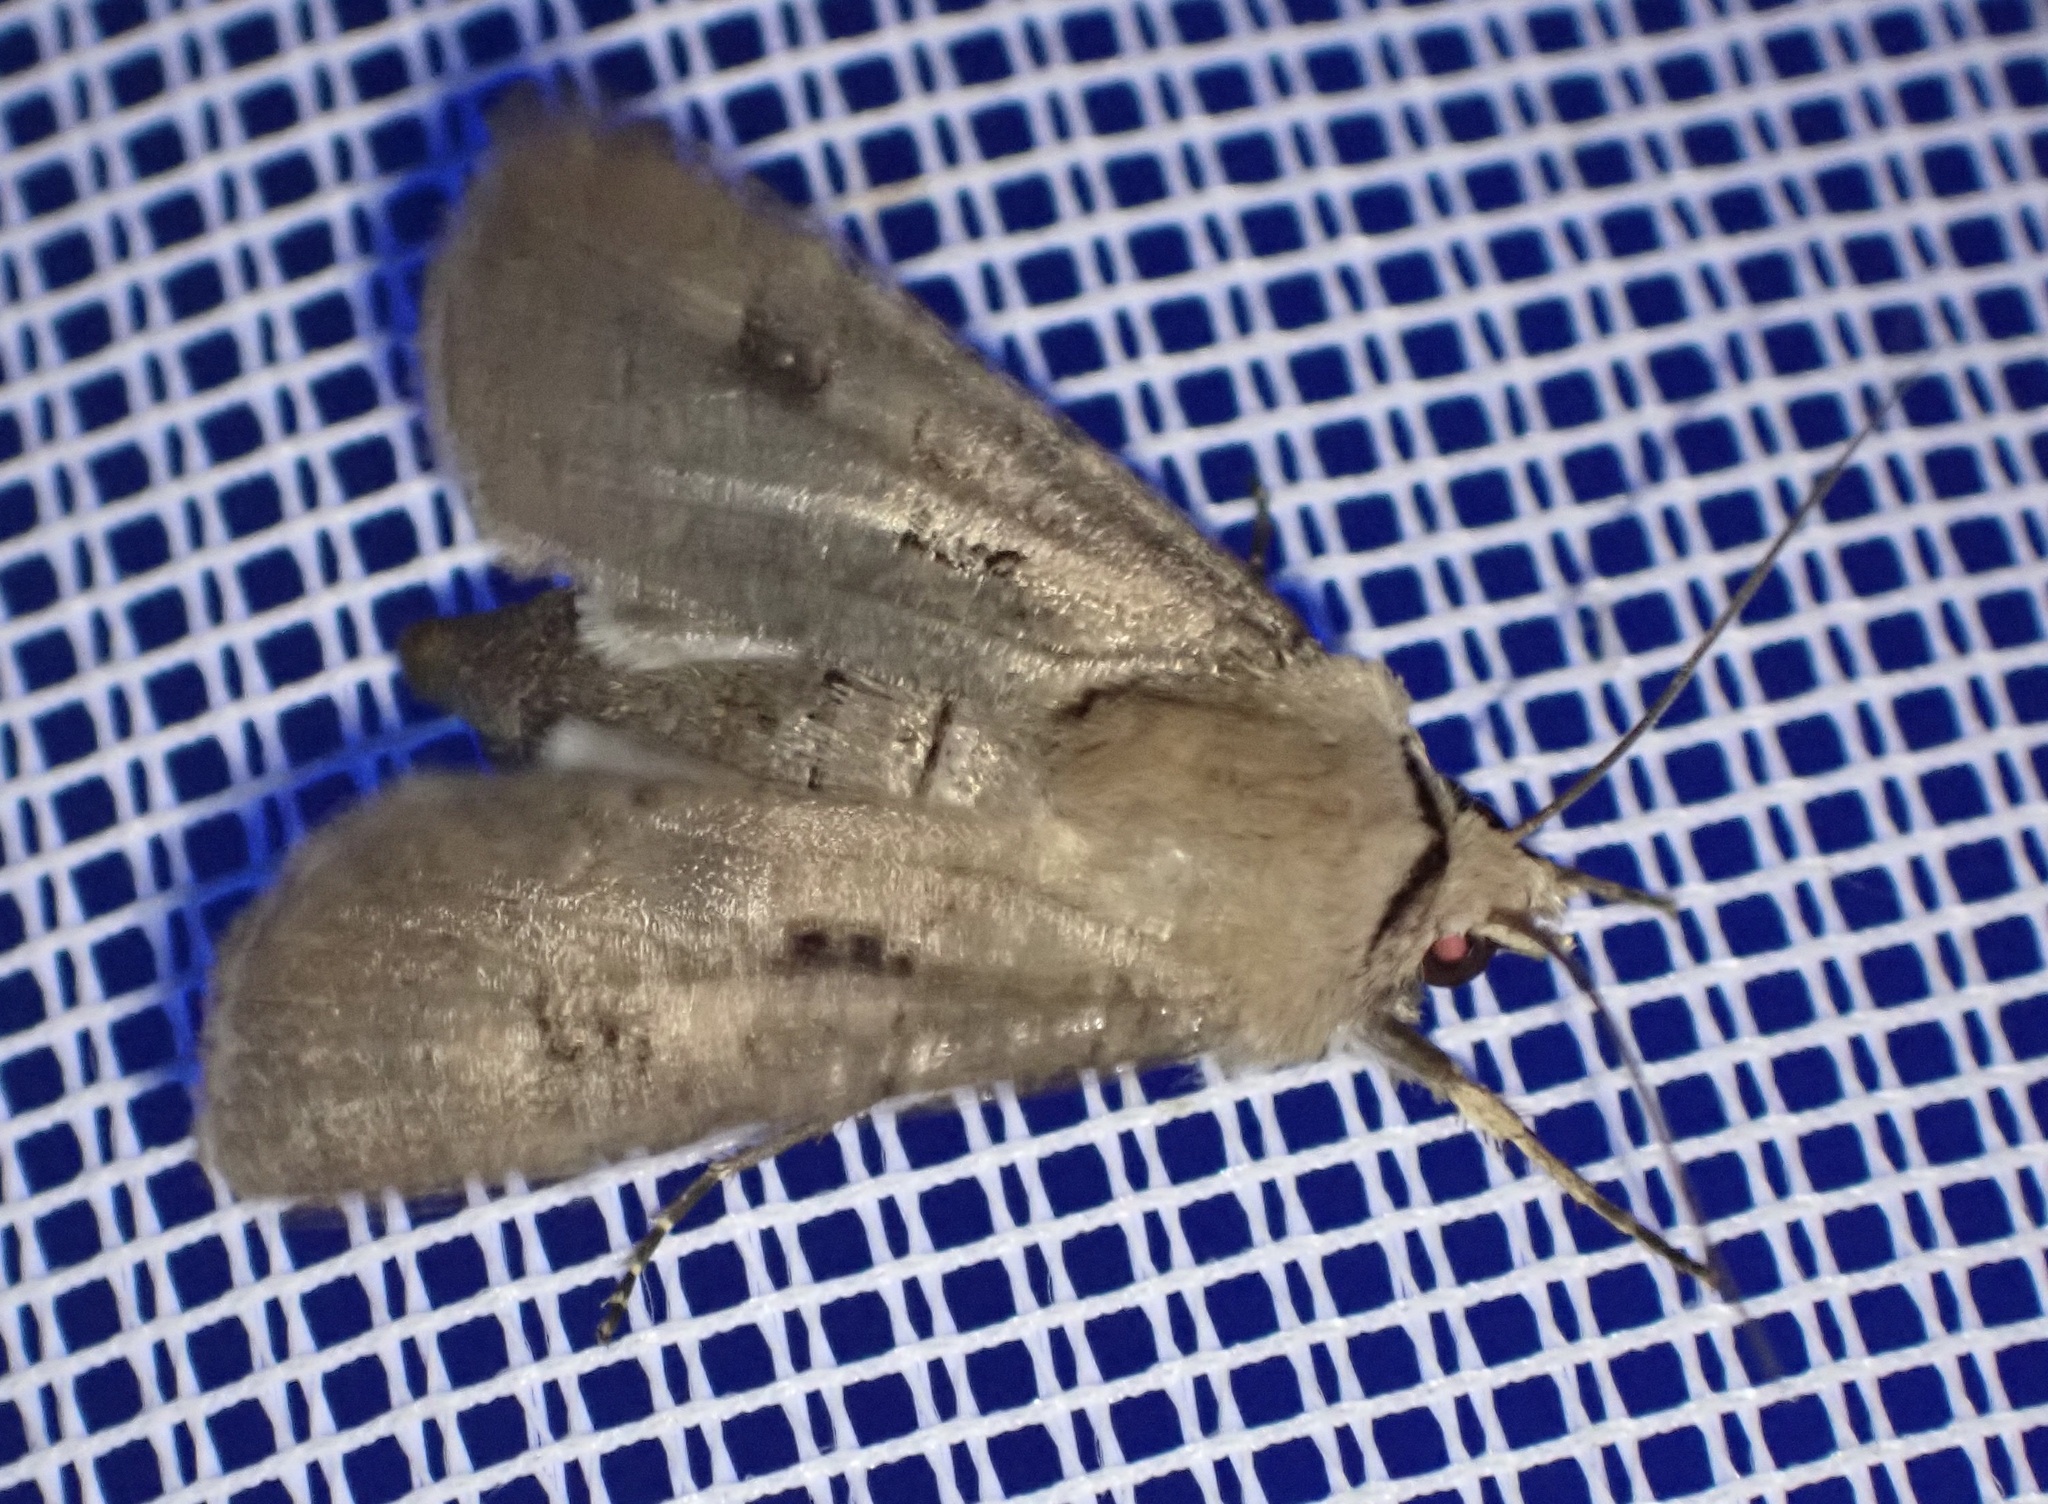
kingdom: Animalia
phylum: Arthropoda
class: Insecta
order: Lepidoptera
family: Noctuidae
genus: Agrotis
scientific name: Agrotis exclamationis
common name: Heart and dart
